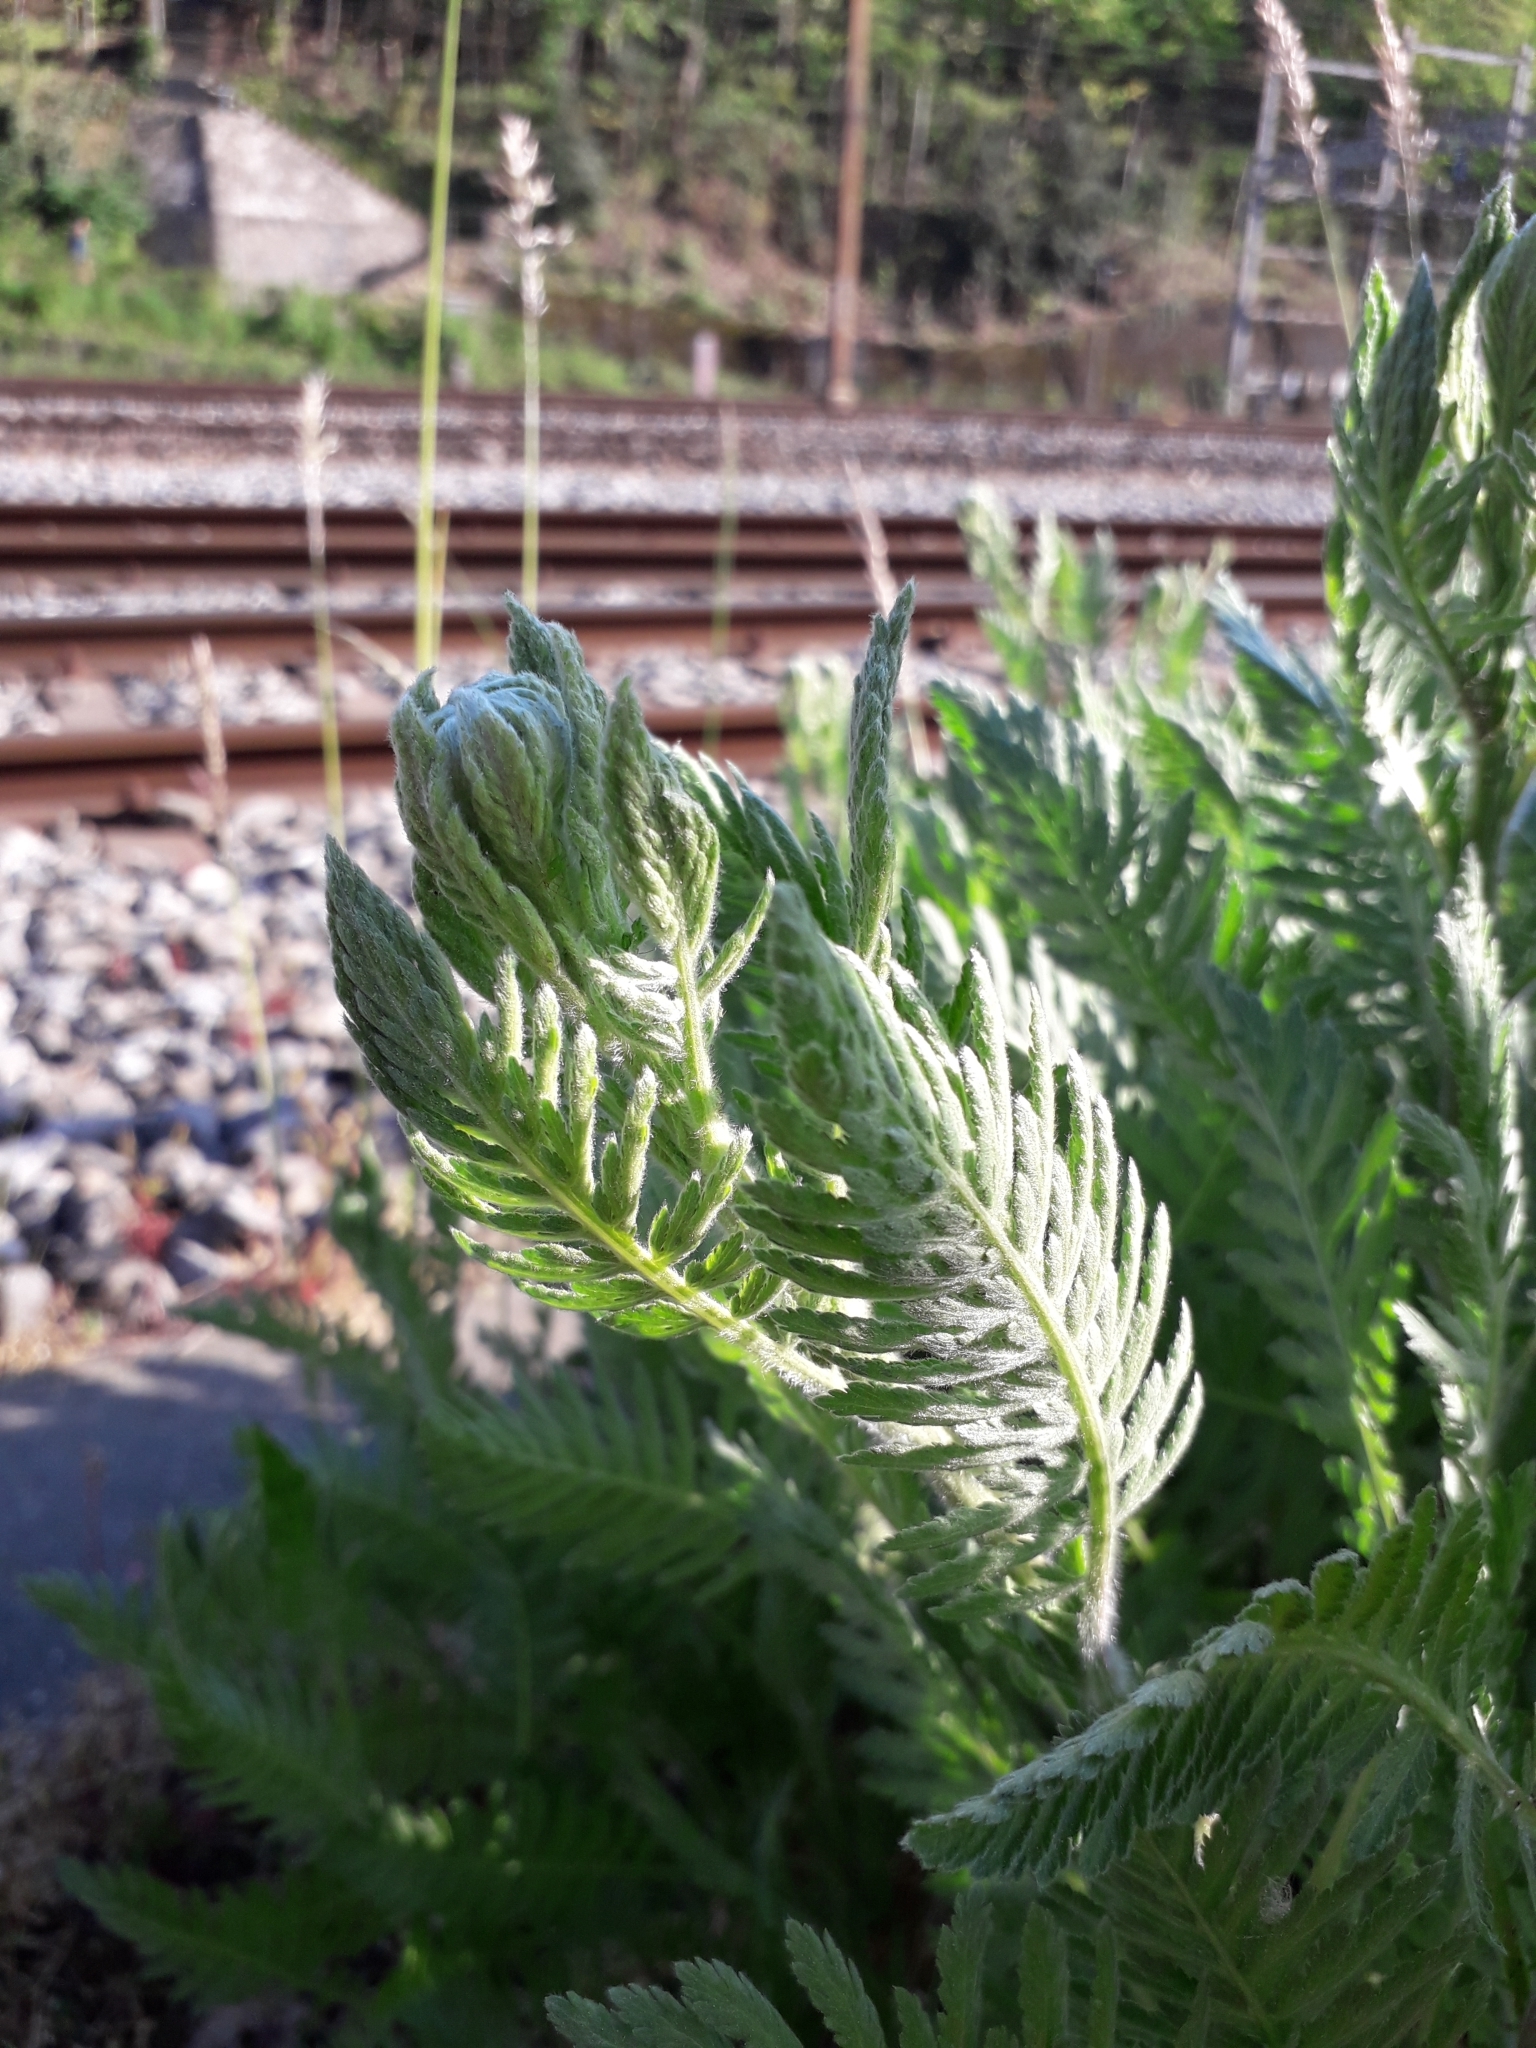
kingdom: Plantae
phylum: Tracheophyta
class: Magnoliopsida
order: Asterales
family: Asteraceae
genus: Tanacetum
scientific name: Tanacetum vulgare
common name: Common tansy
